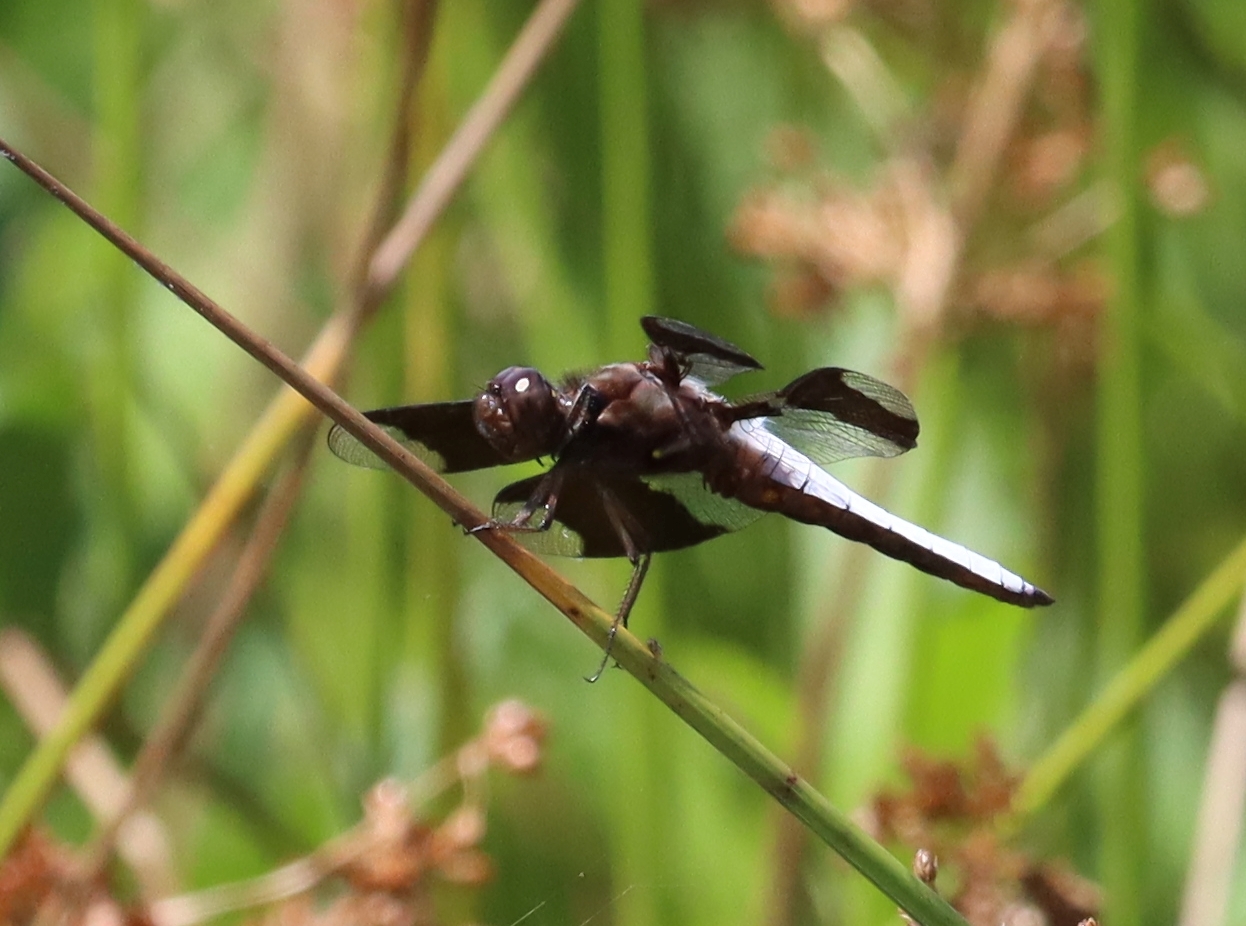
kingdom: Animalia
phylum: Arthropoda
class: Insecta
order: Odonata
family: Libellulidae
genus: Plathemis
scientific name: Plathemis lydia
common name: Common whitetail
